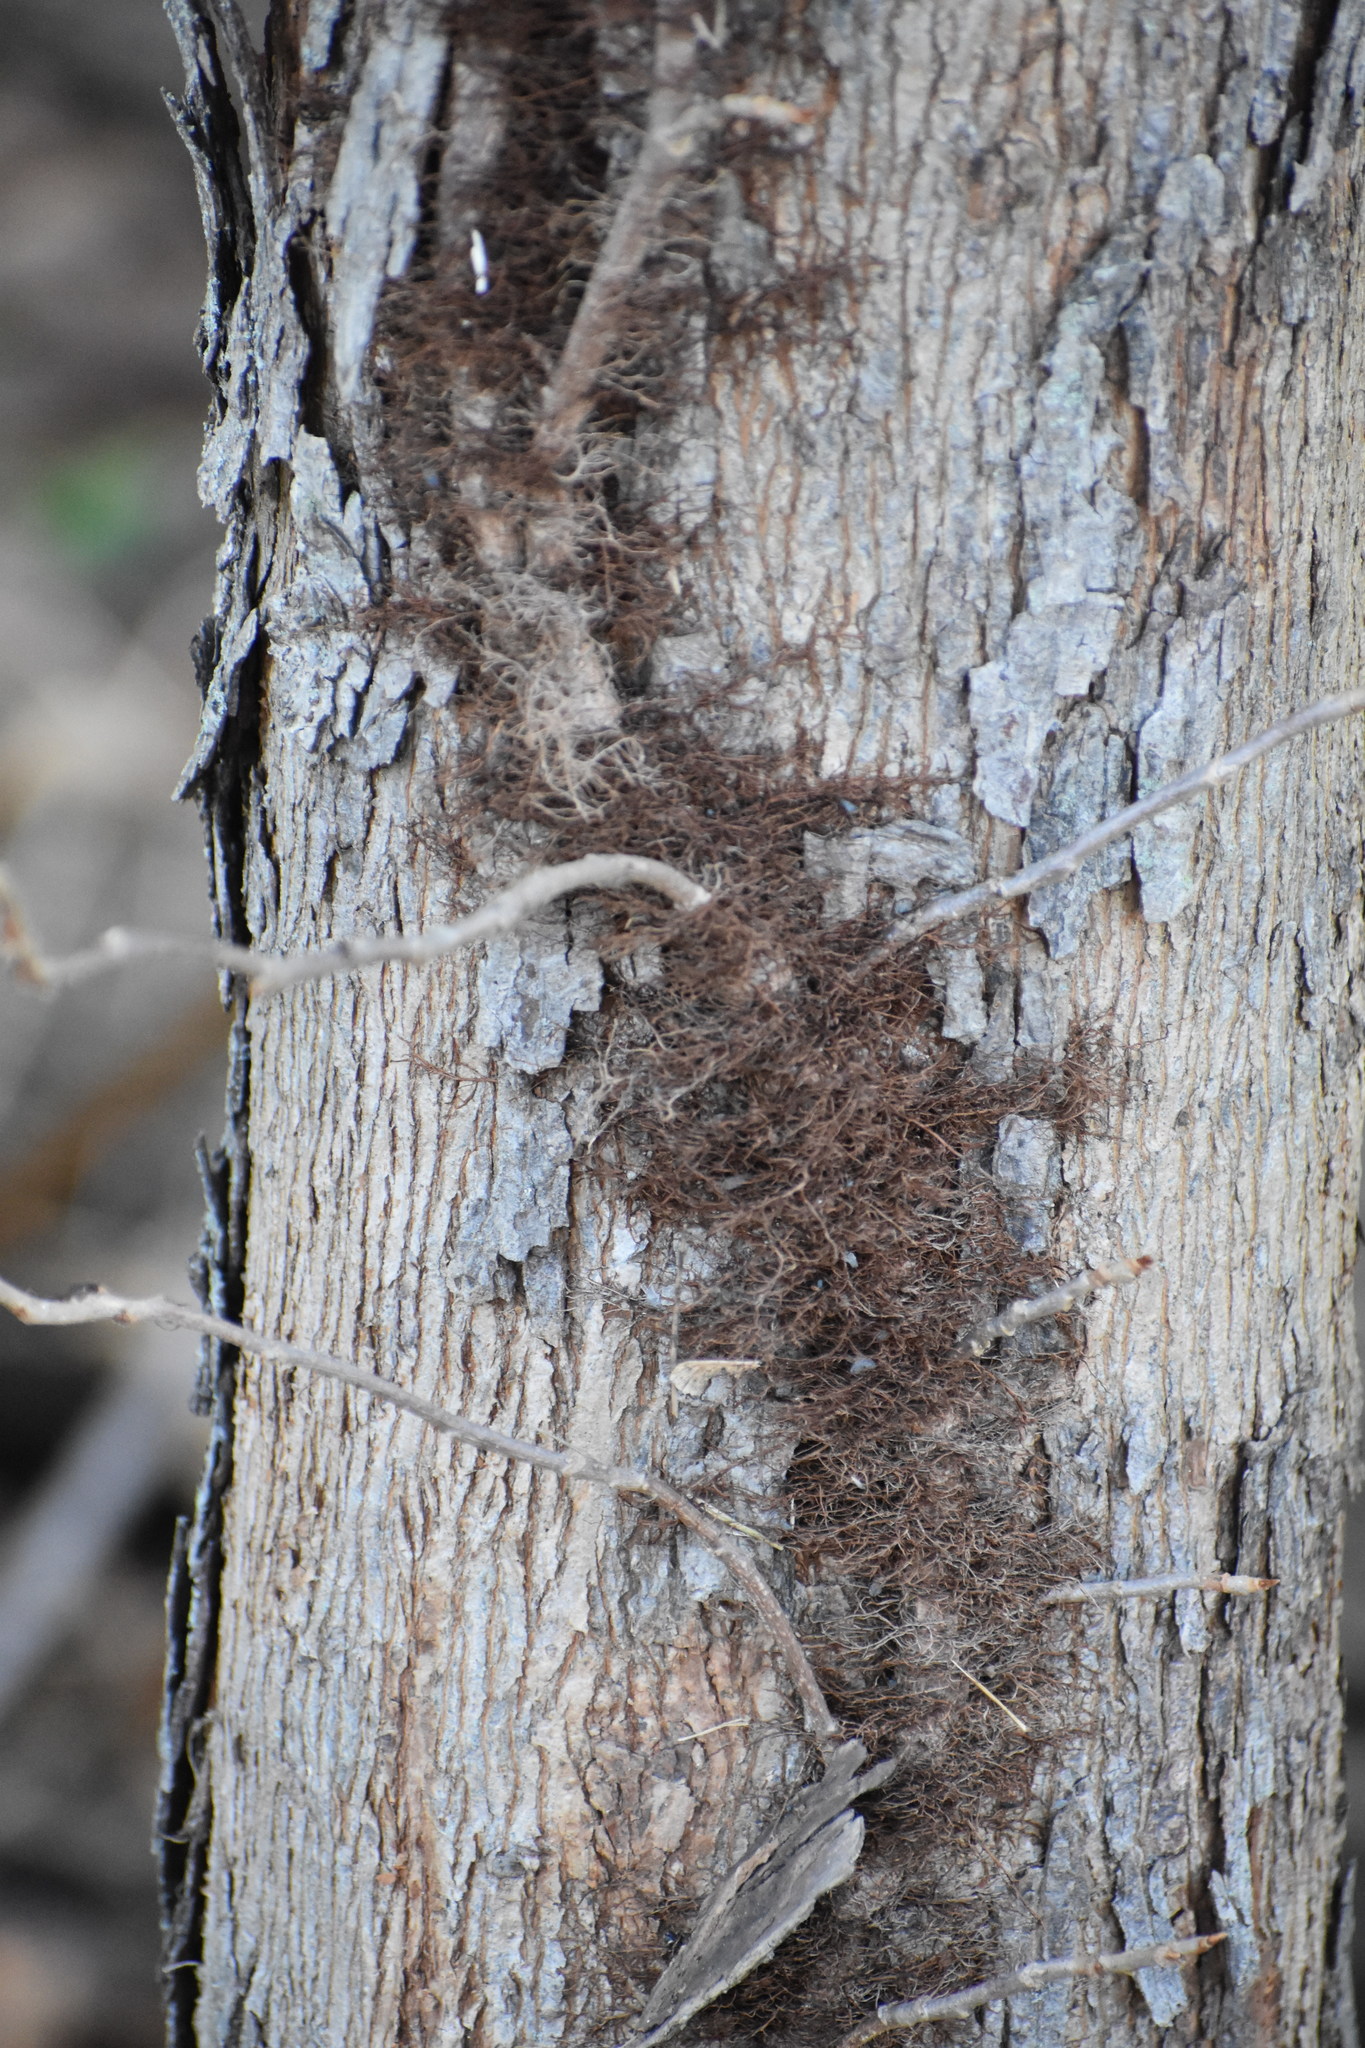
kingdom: Plantae
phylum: Tracheophyta
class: Magnoliopsida
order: Sapindales
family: Anacardiaceae
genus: Toxicodendron
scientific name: Toxicodendron radicans
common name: Poison ivy
